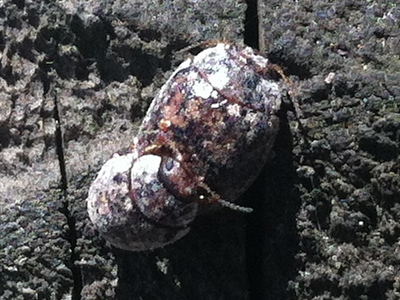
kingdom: Animalia
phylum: Arthropoda
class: Insecta
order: Coleoptera
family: Chrysomelidae
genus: Trachymela
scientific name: Trachymela sloanei
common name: Australian tortoise beetle
